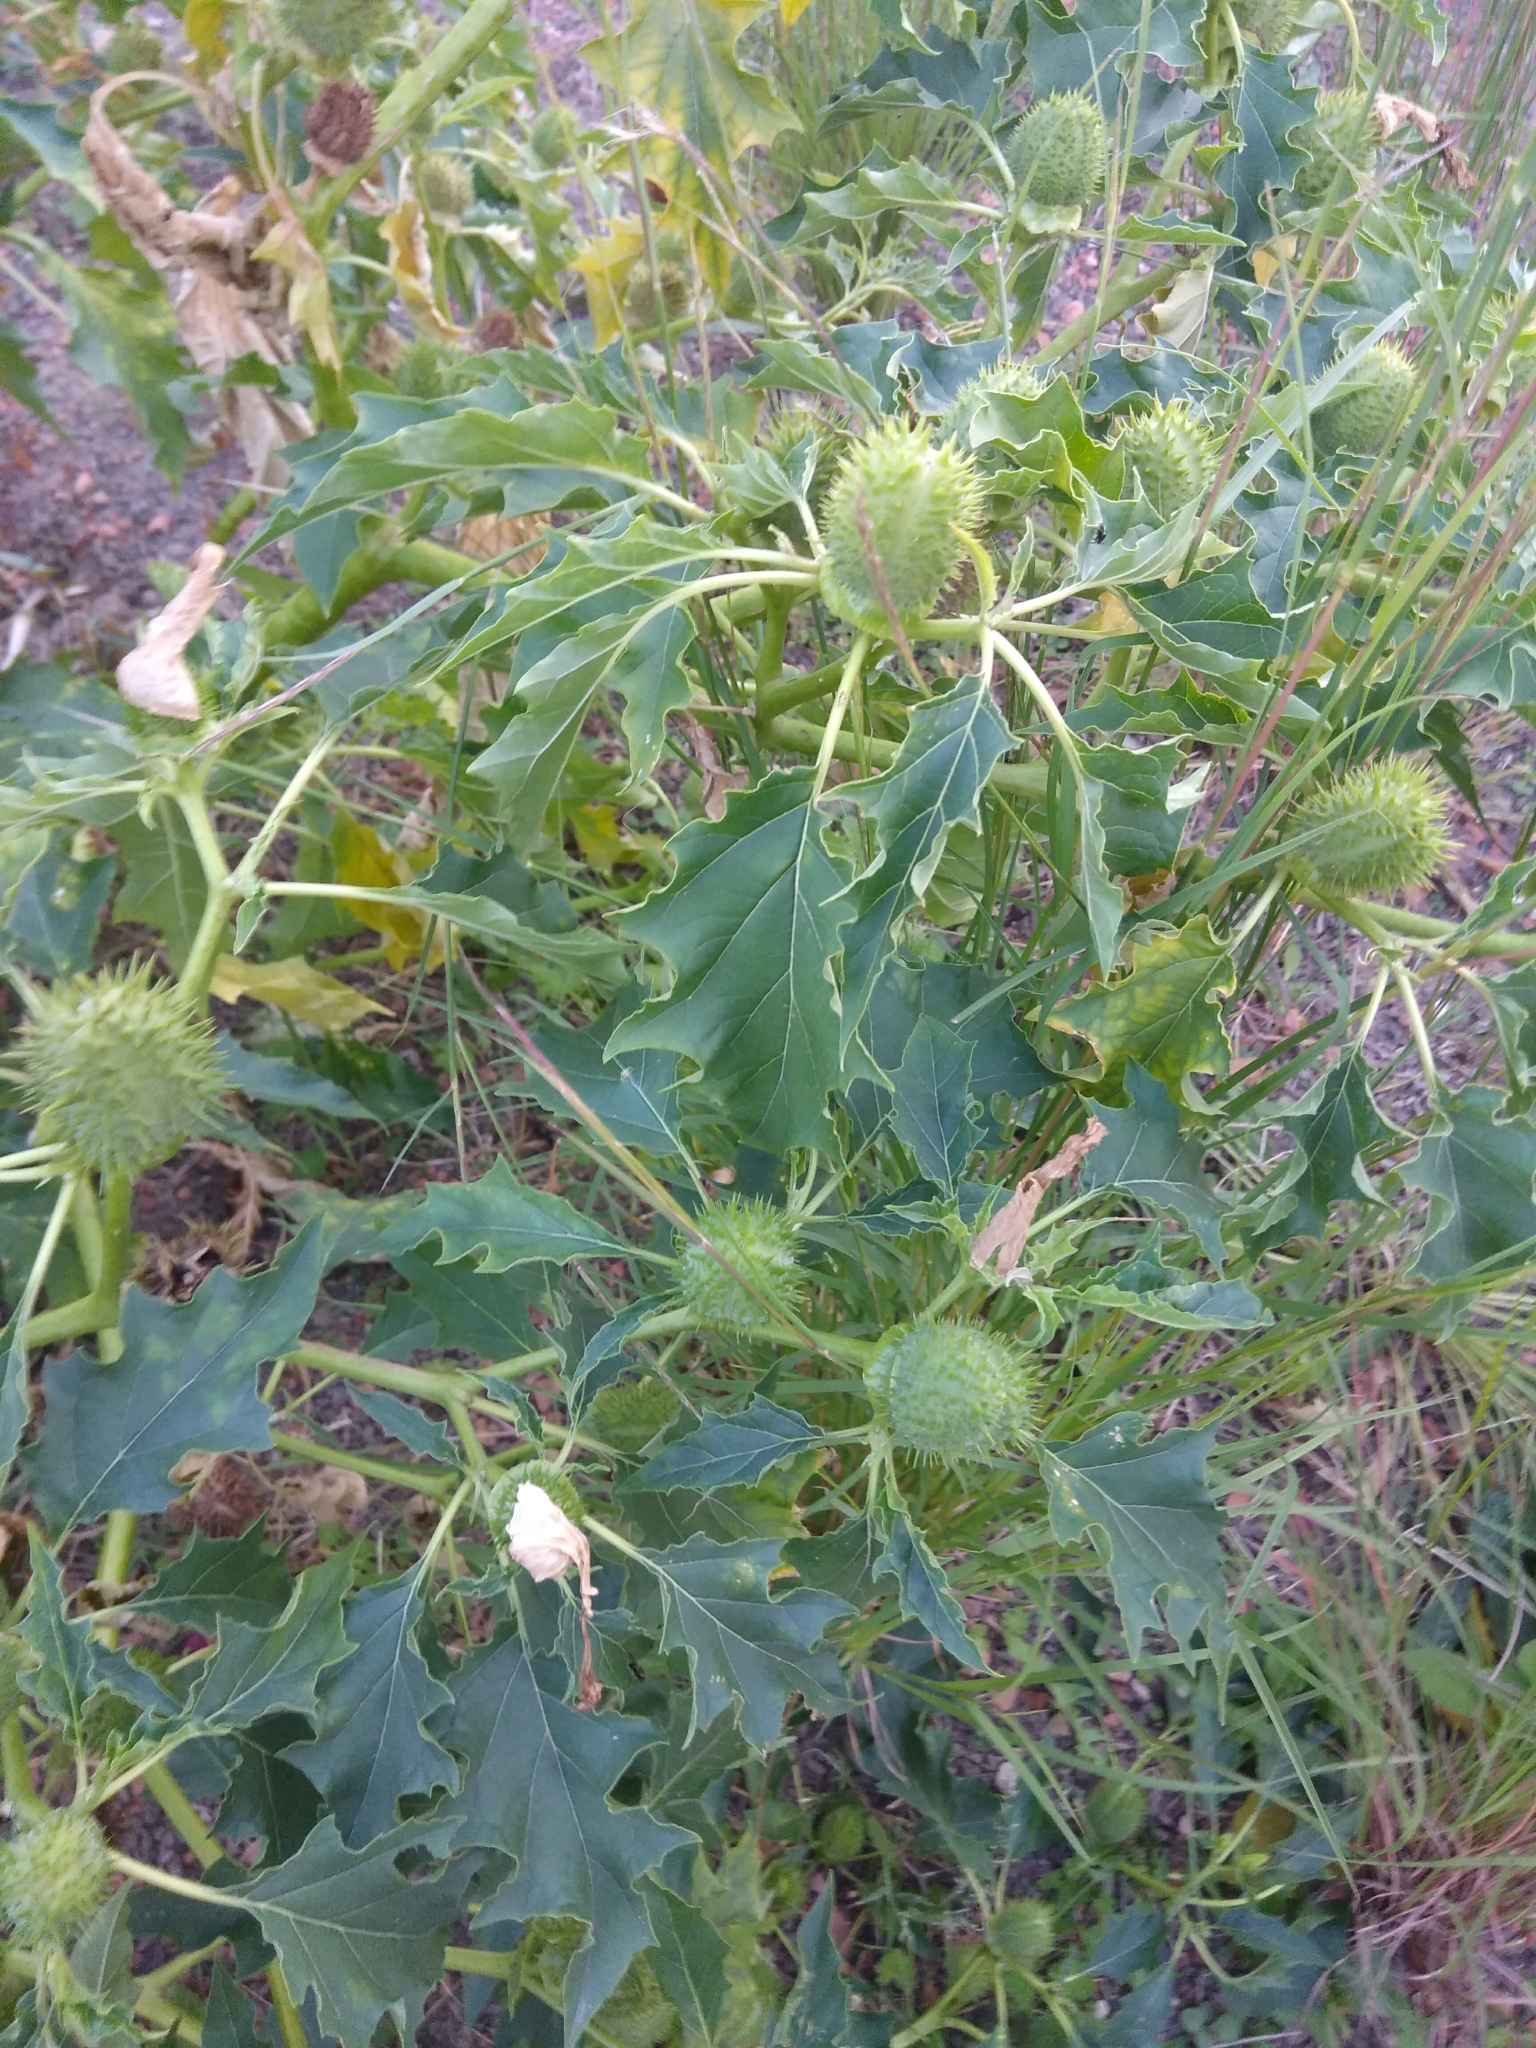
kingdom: Plantae
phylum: Tracheophyta
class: Magnoliopsida
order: Solanales
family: Solanaceae
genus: Datura
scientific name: Datura stramonium
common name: Thorn-apple
